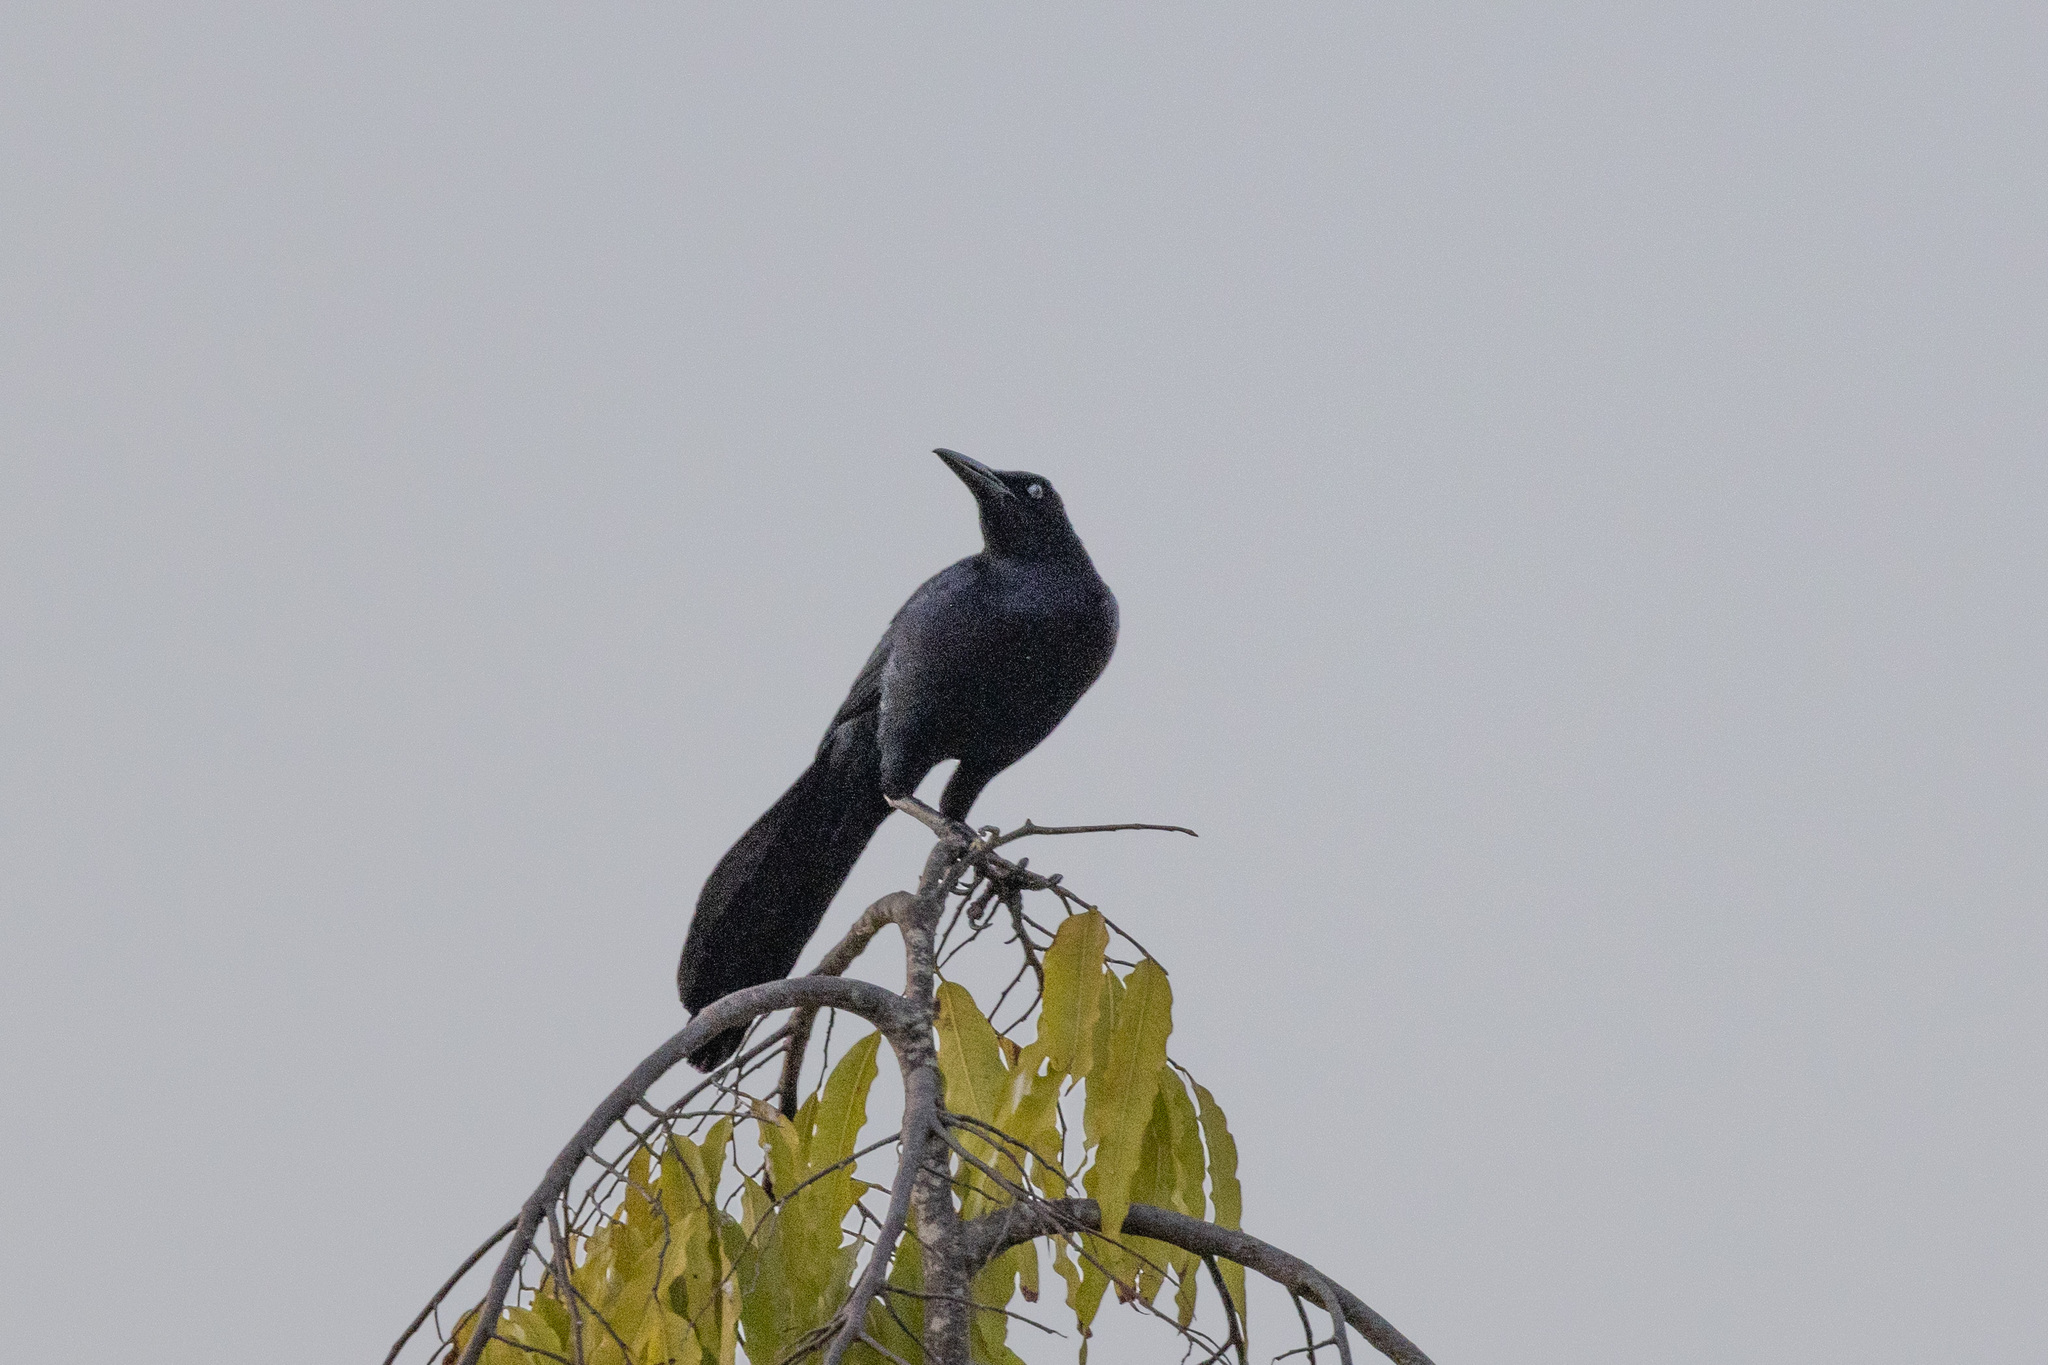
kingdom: Animalia
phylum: Chordata
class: Aves
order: Passeriformes
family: Icteridae
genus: Quiscalus
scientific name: Quiscalus mexicanus
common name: Great-tailed grackle
